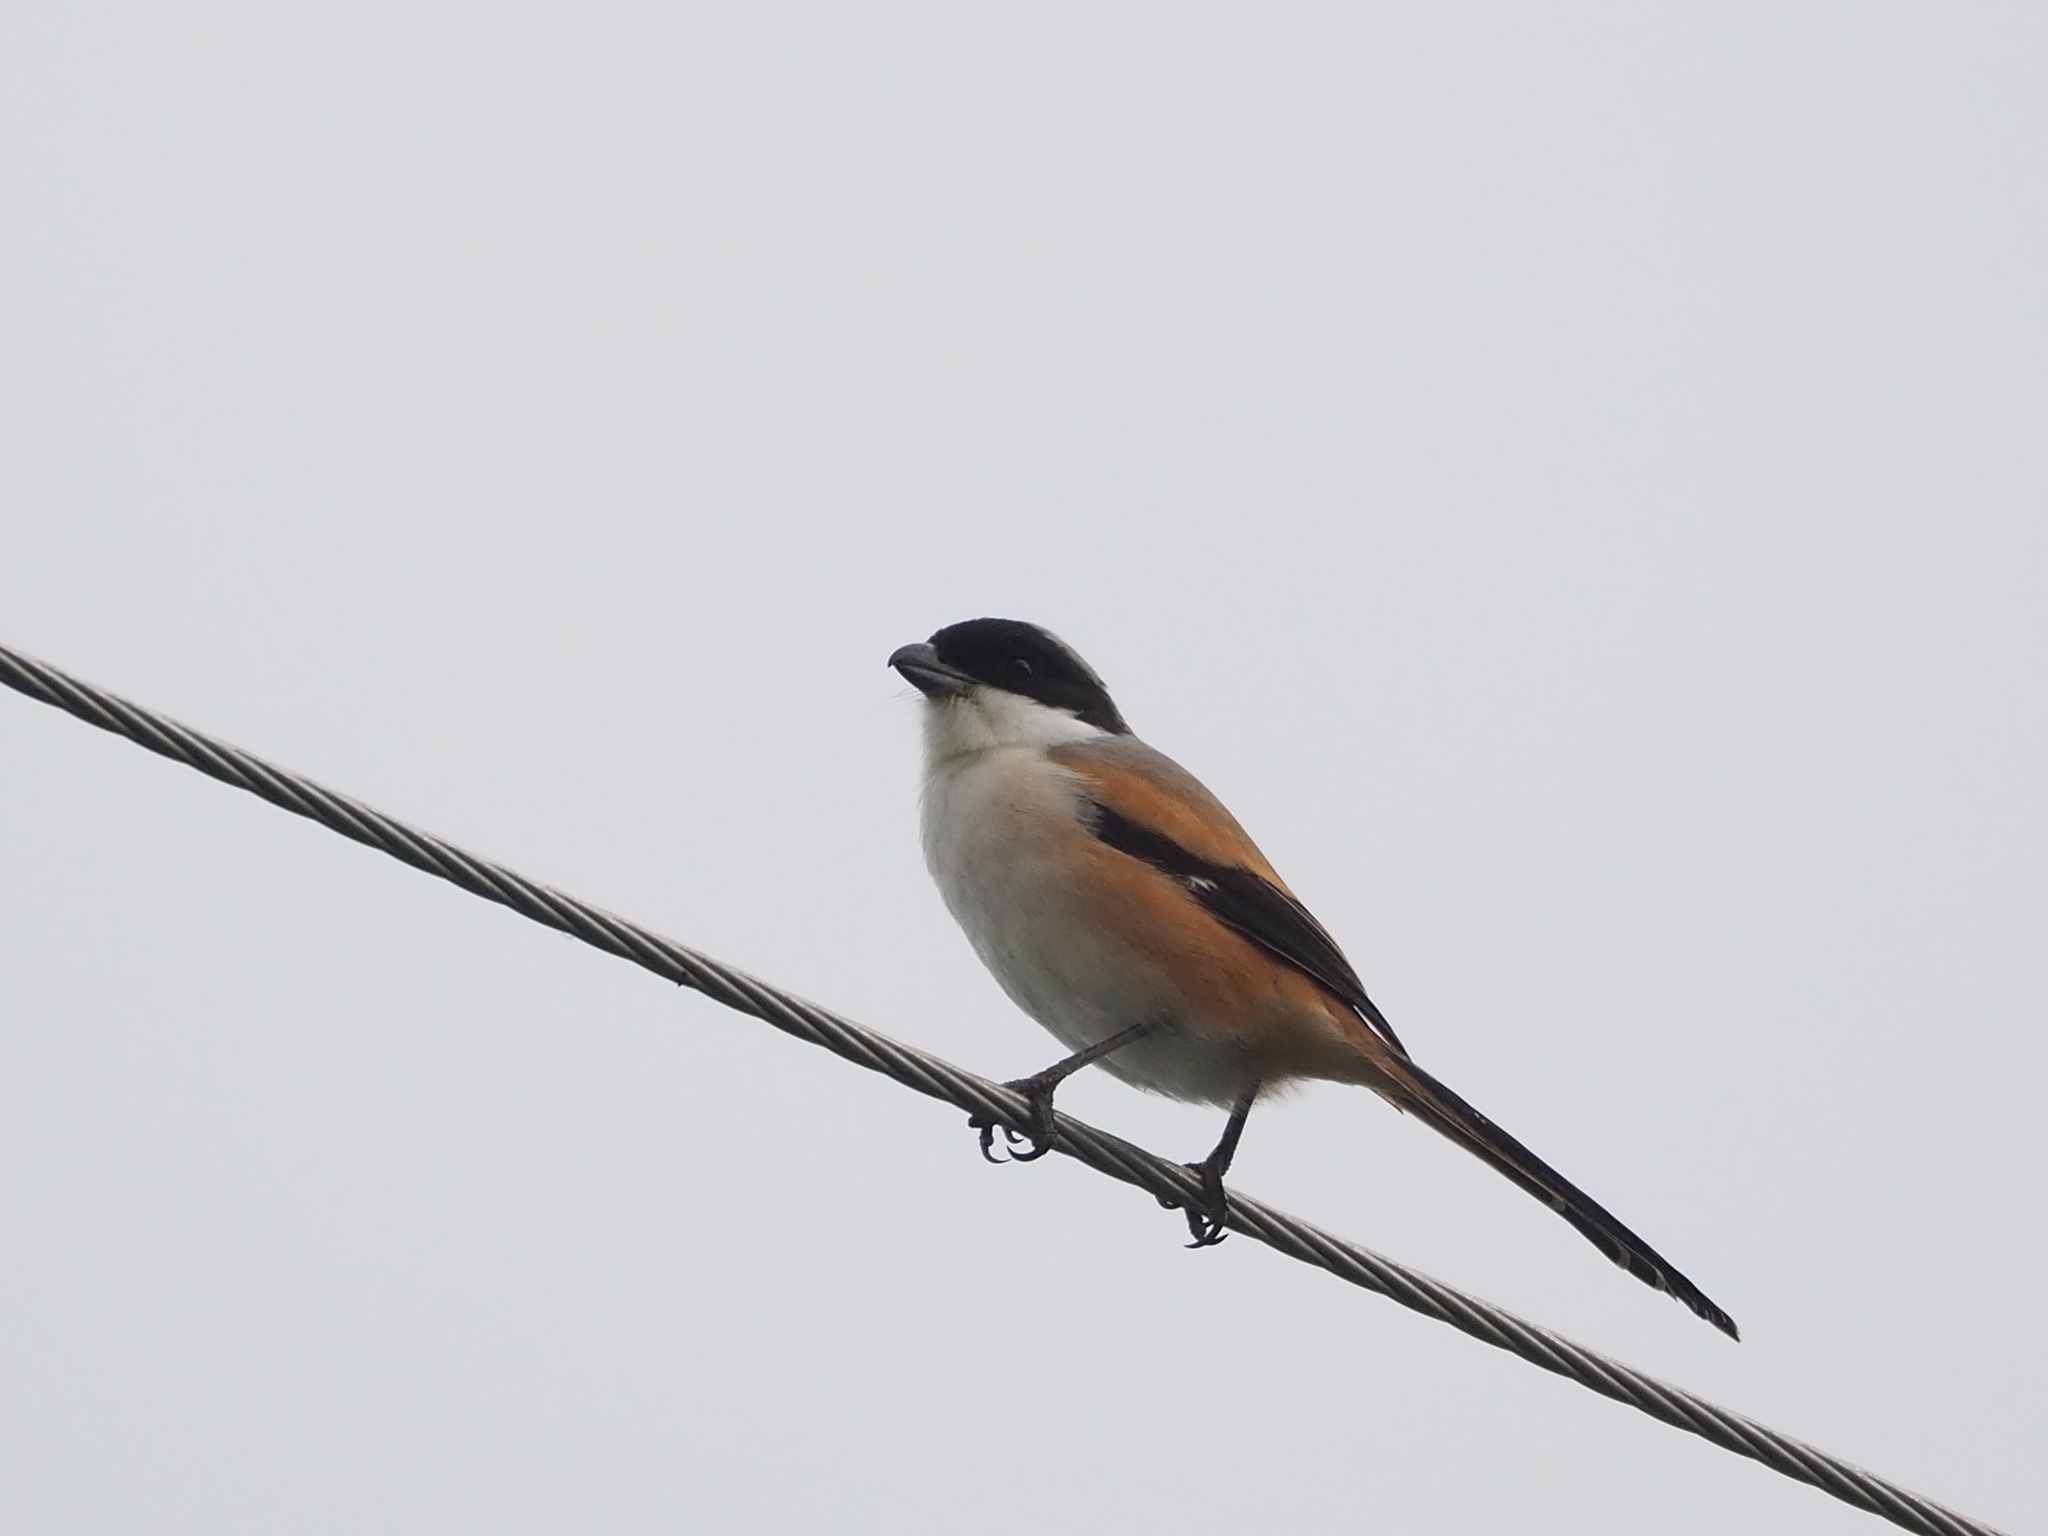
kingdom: Animalia
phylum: Chordata
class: Aves
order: Passeriformes
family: Laniidae
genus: Lanius
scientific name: Lanius schach
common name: Long-tailed shrike
